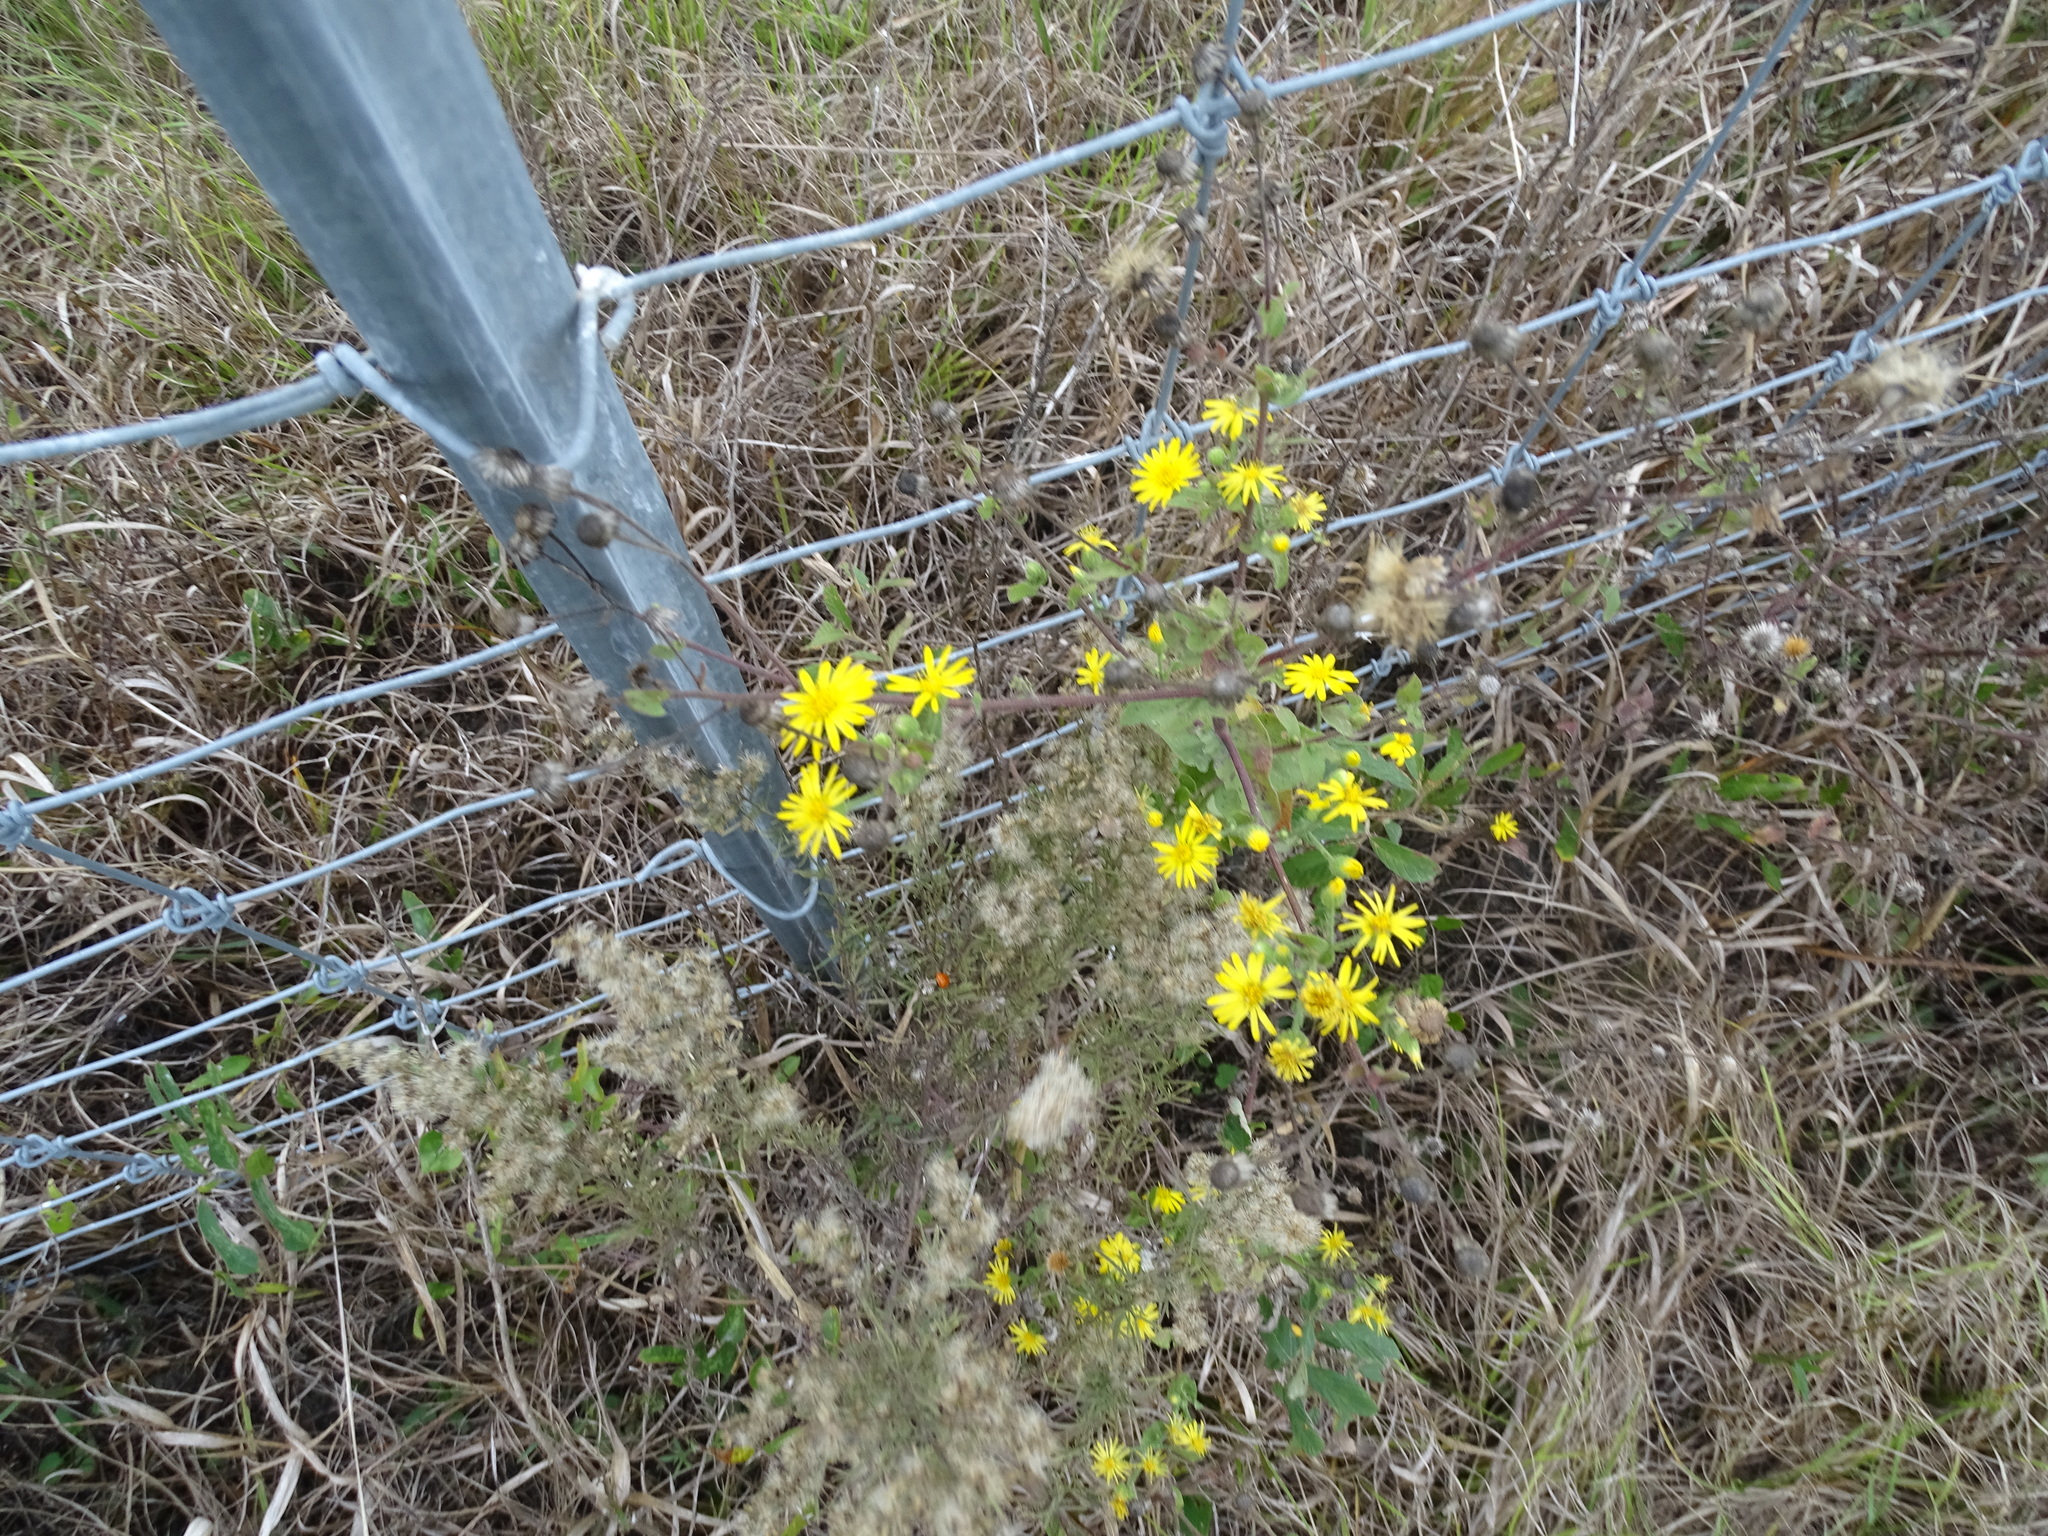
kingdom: Plantae
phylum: Tracheophyta
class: Magnoliopsida
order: Asterales
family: Asteraceae
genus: Heterotheca
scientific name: Heterotheca subaxillaris
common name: Camphorweed
